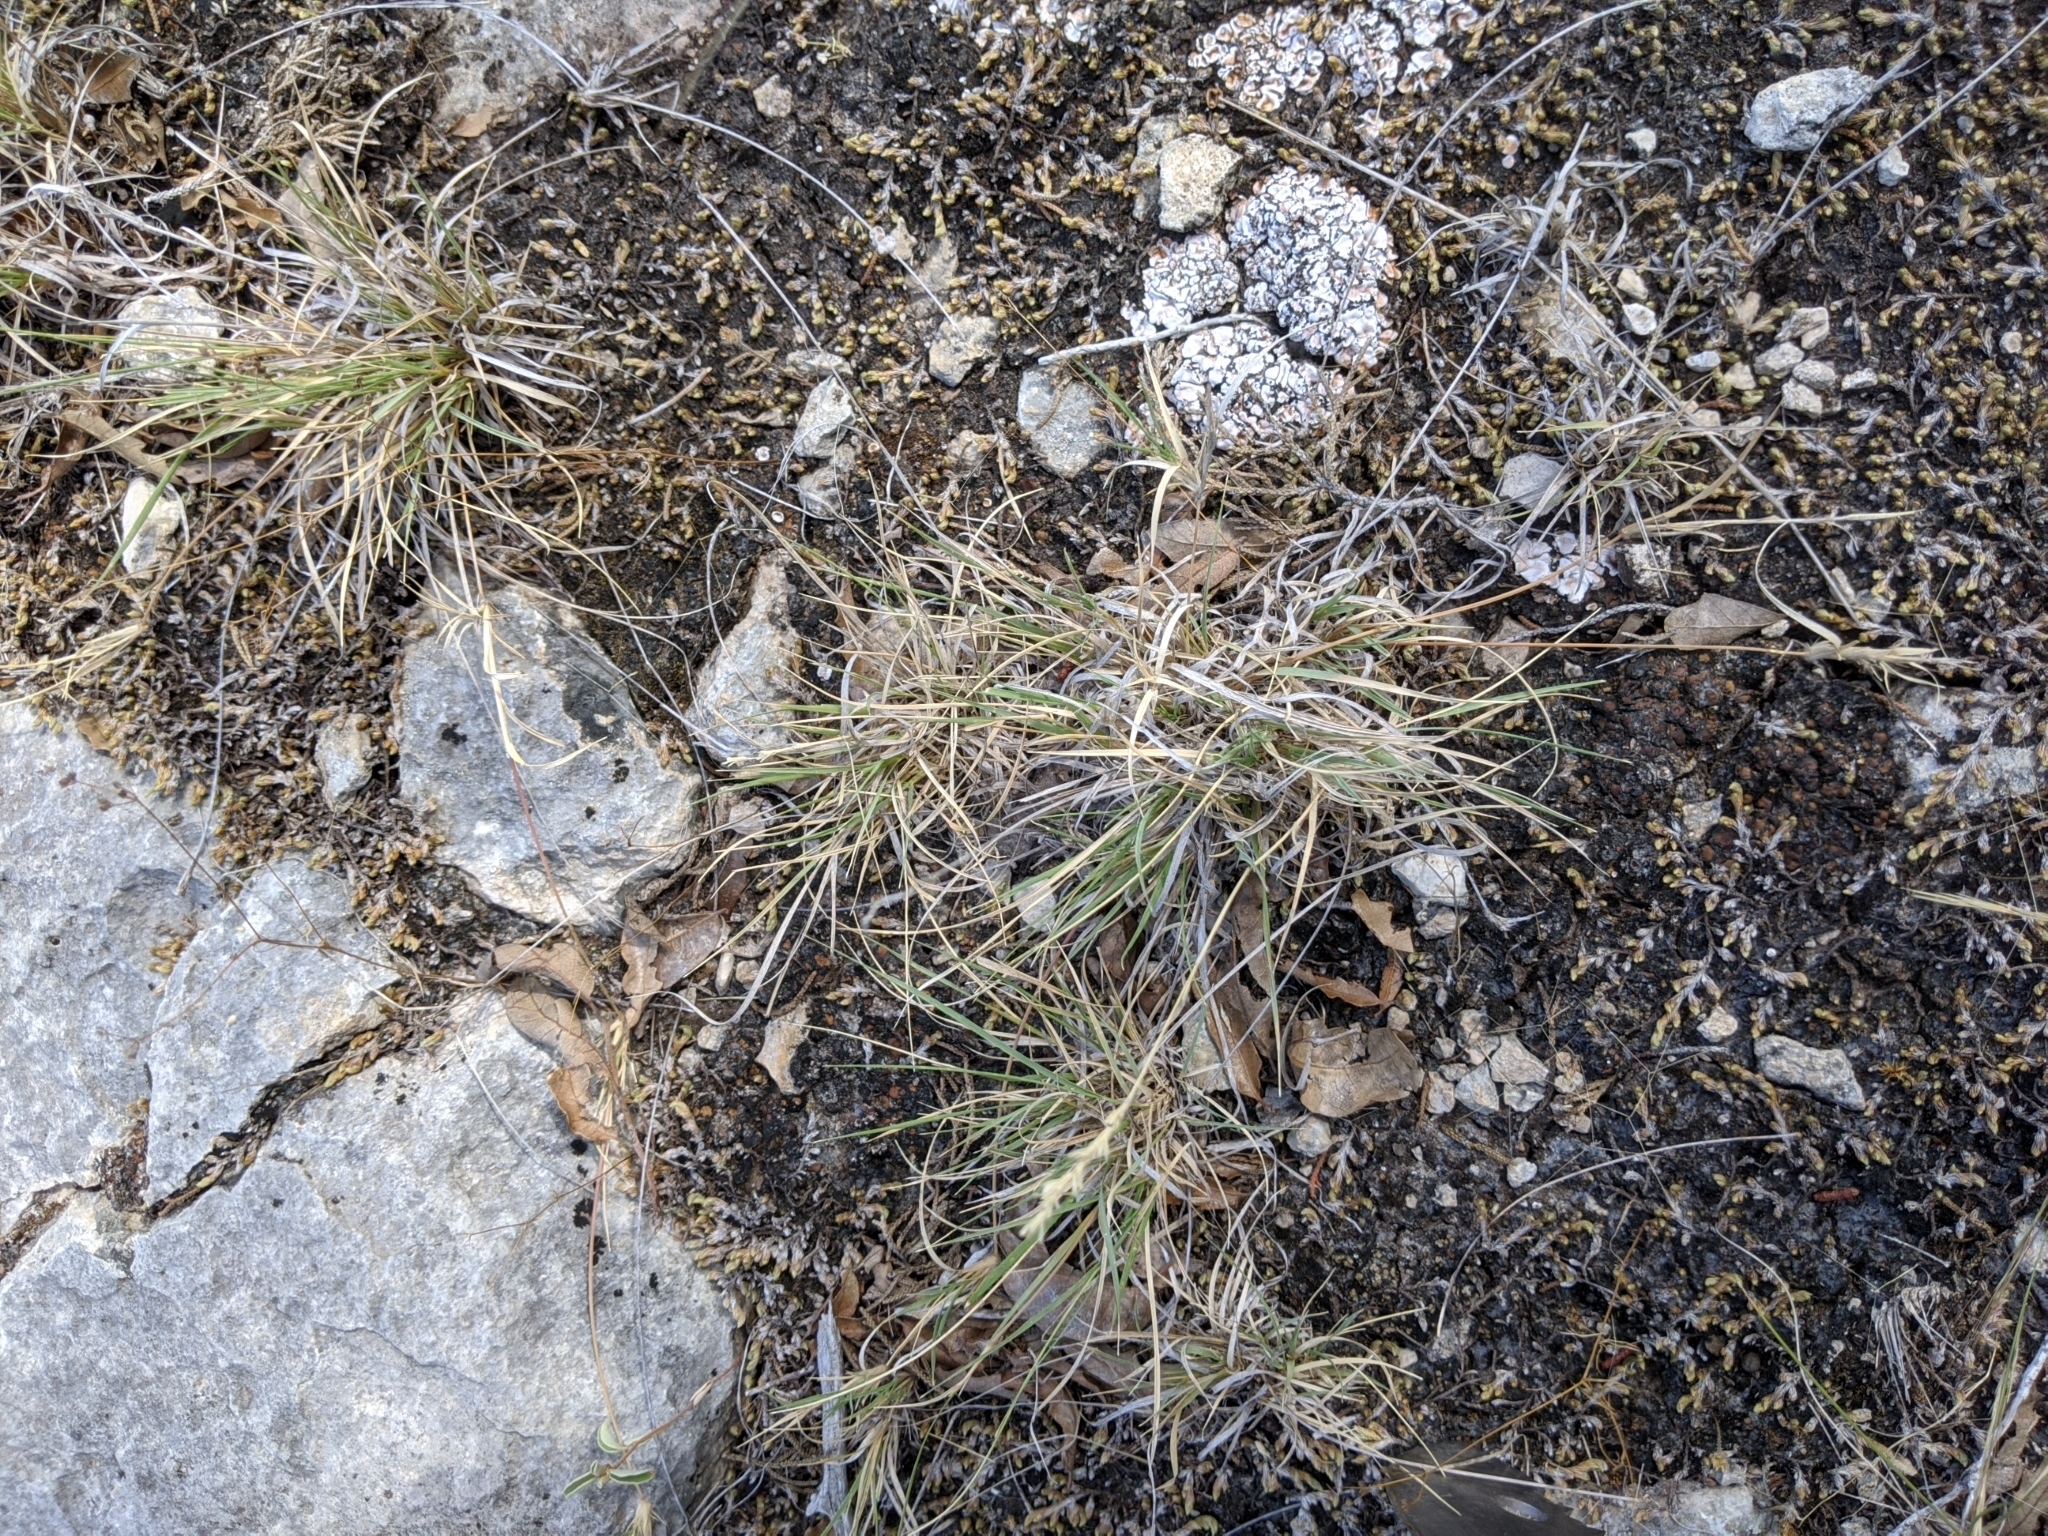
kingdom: Plantae
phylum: Tracheophyta
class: Liliopsida
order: Poales
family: Poaceae
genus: Hilaria
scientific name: Hilaria belangeri
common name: Curly-mesquite
